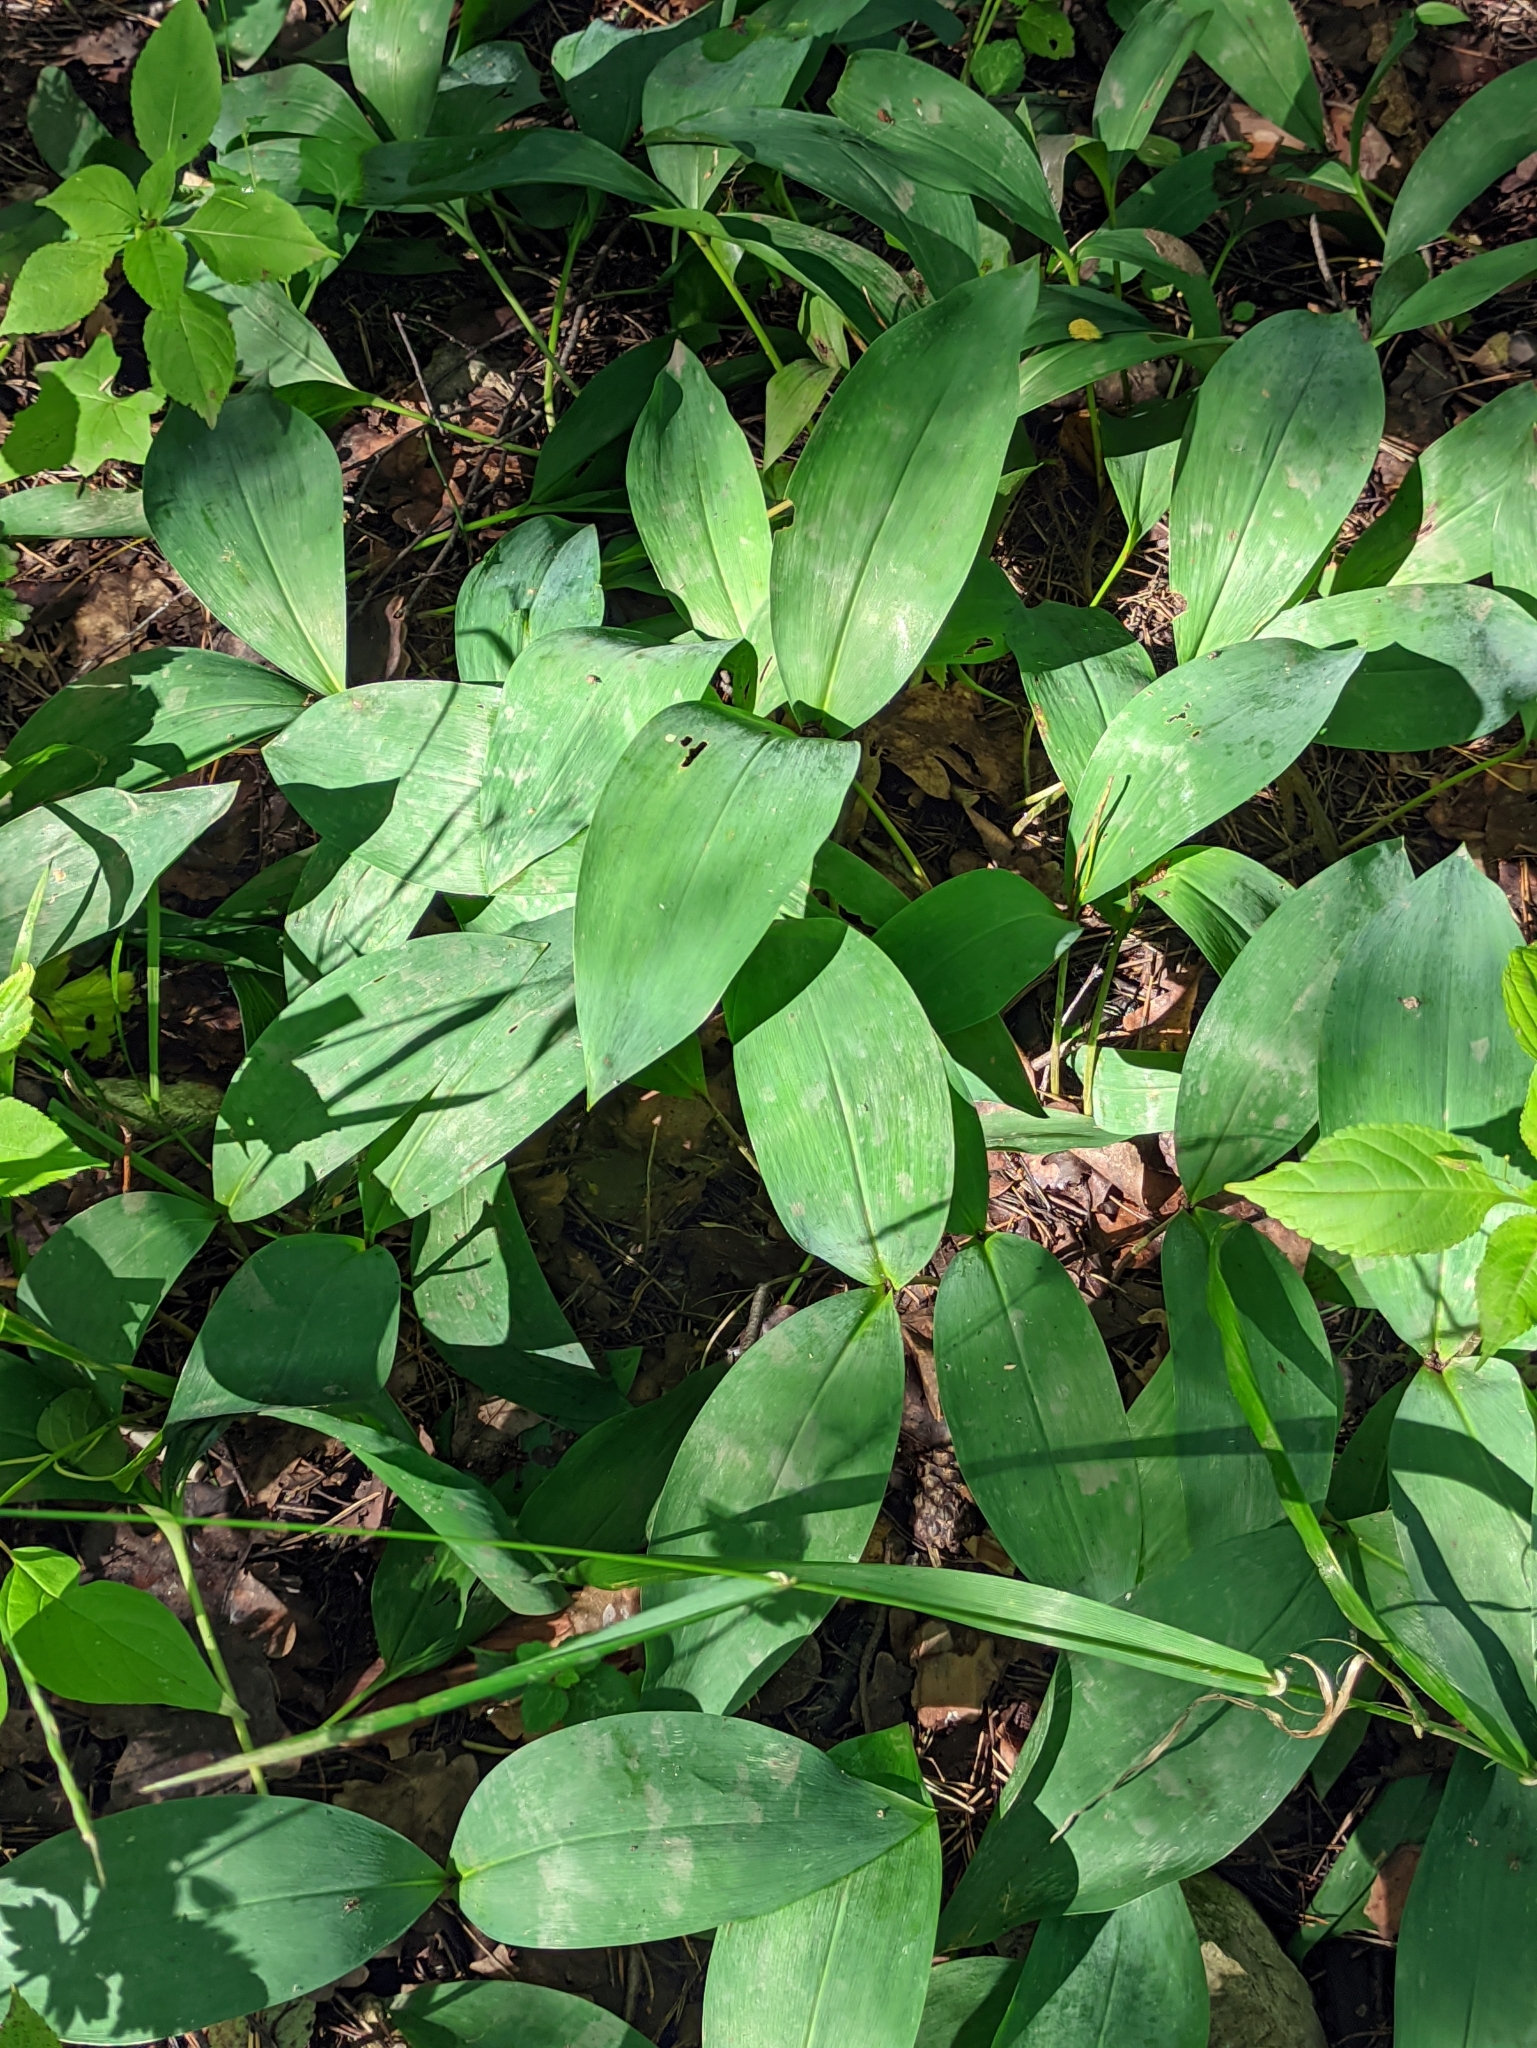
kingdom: Plantae
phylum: Tracheophyta
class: Liliopsida
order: Asparagales
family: Asparagaceae
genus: Convallaria
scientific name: Convallaria majalis
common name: Lily-of-the-valley
